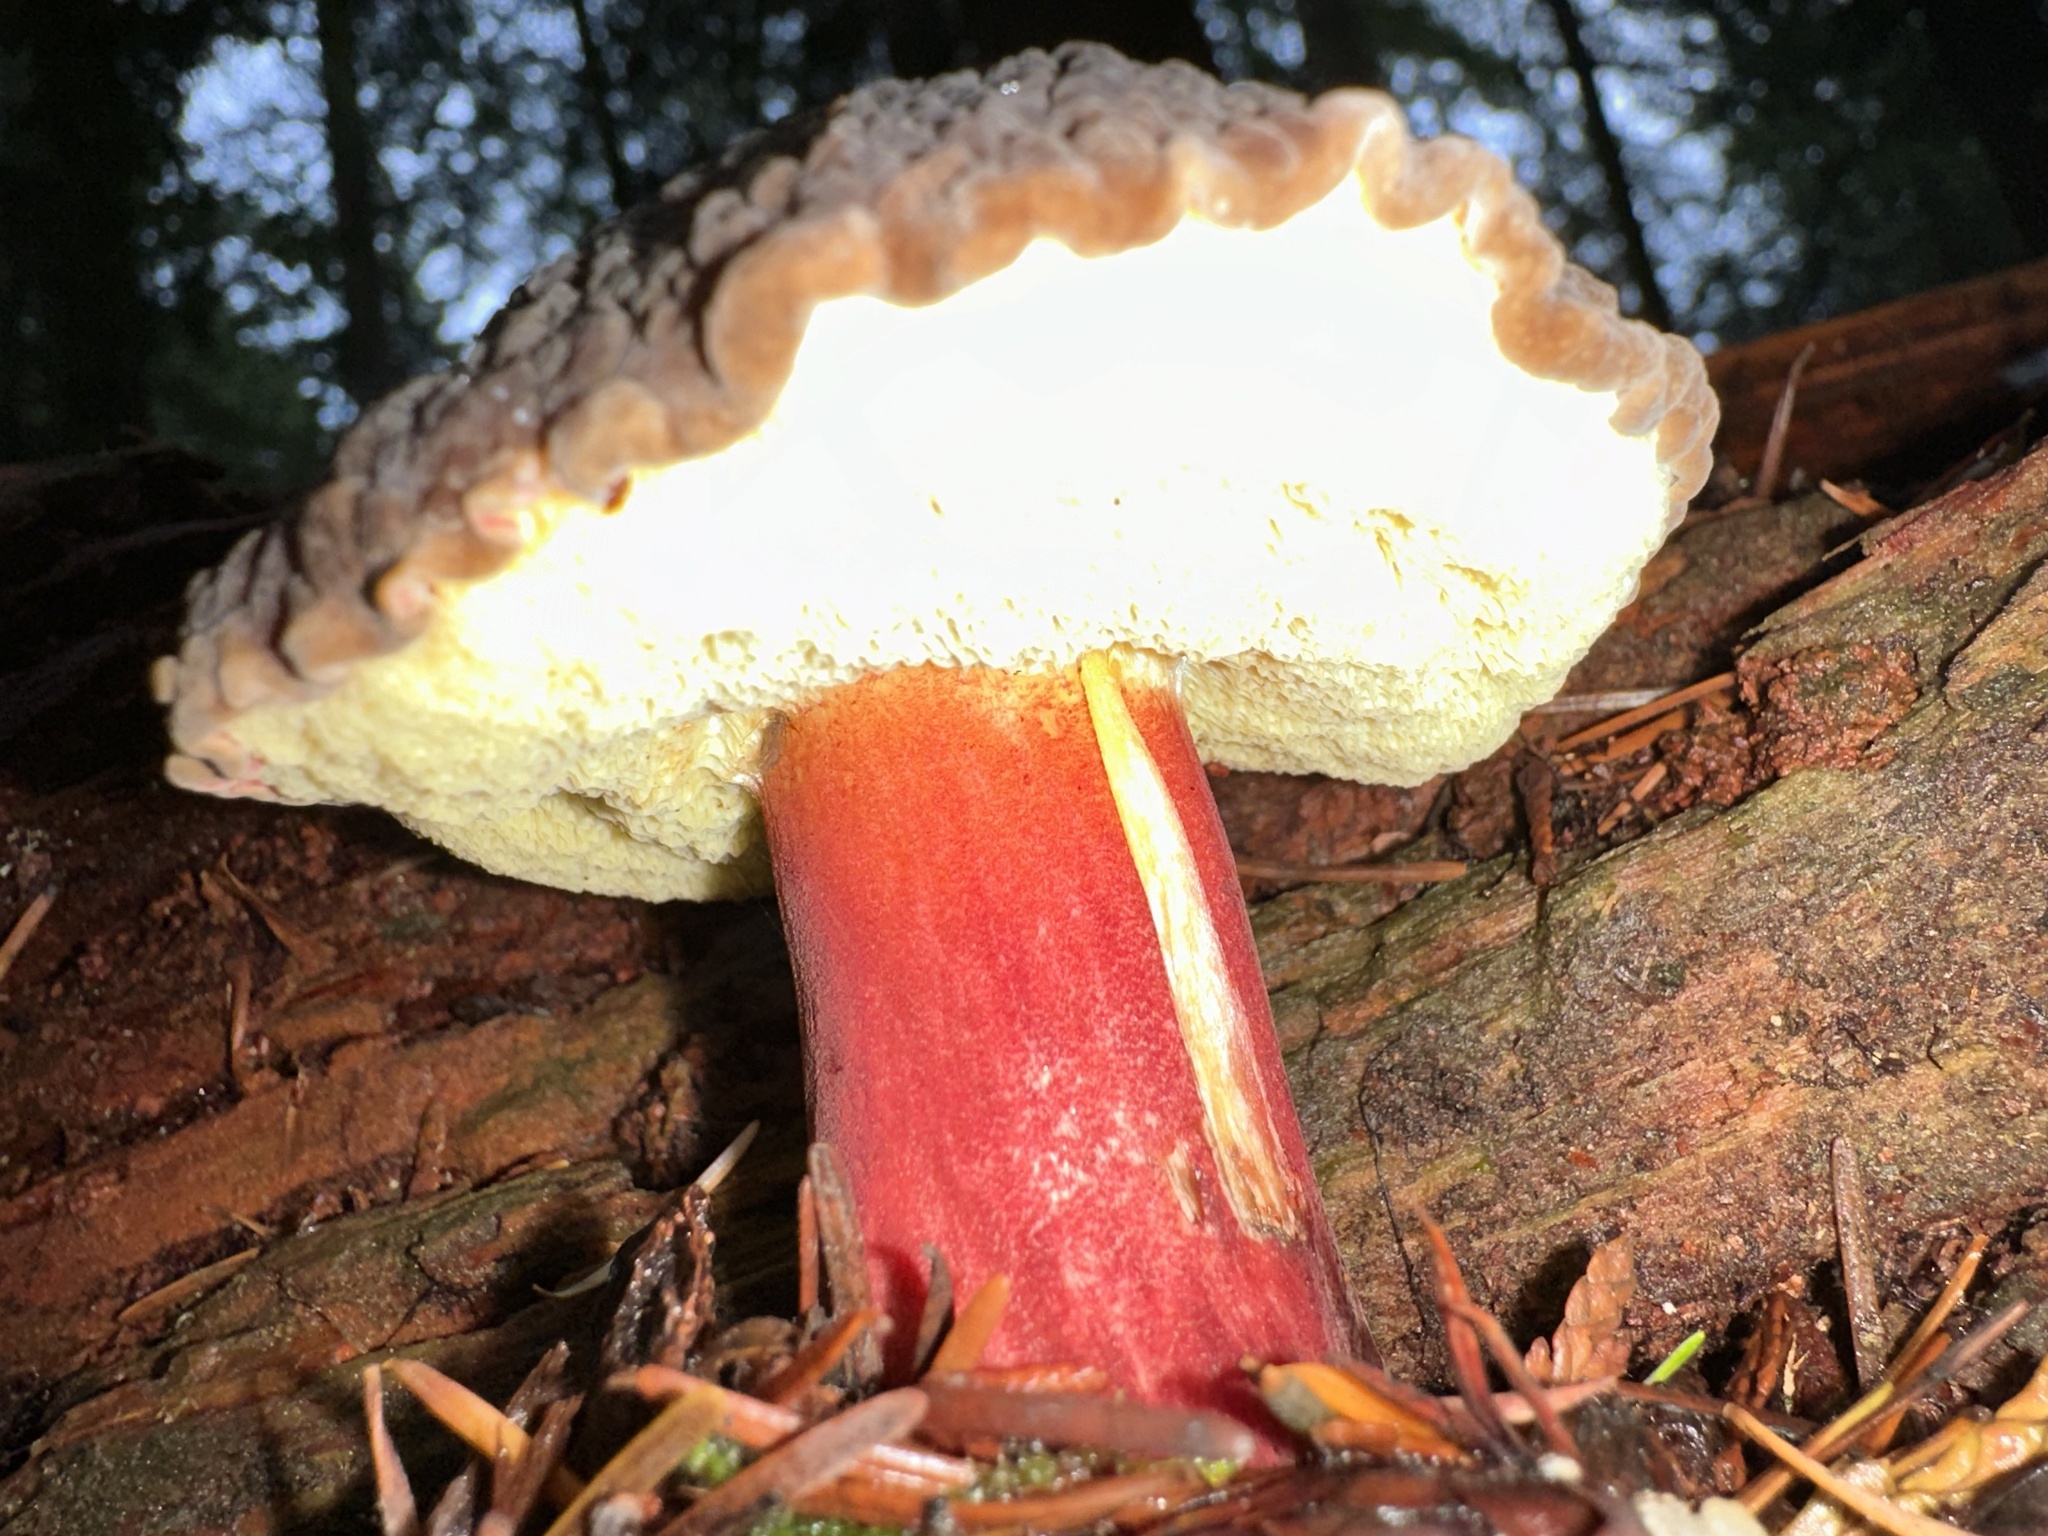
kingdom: Fungi
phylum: Basidiomycota
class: Agaricomycetes
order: Boletales
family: Boletaceae
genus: Xerocomellus
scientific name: Xerocomellus atropurpureus
